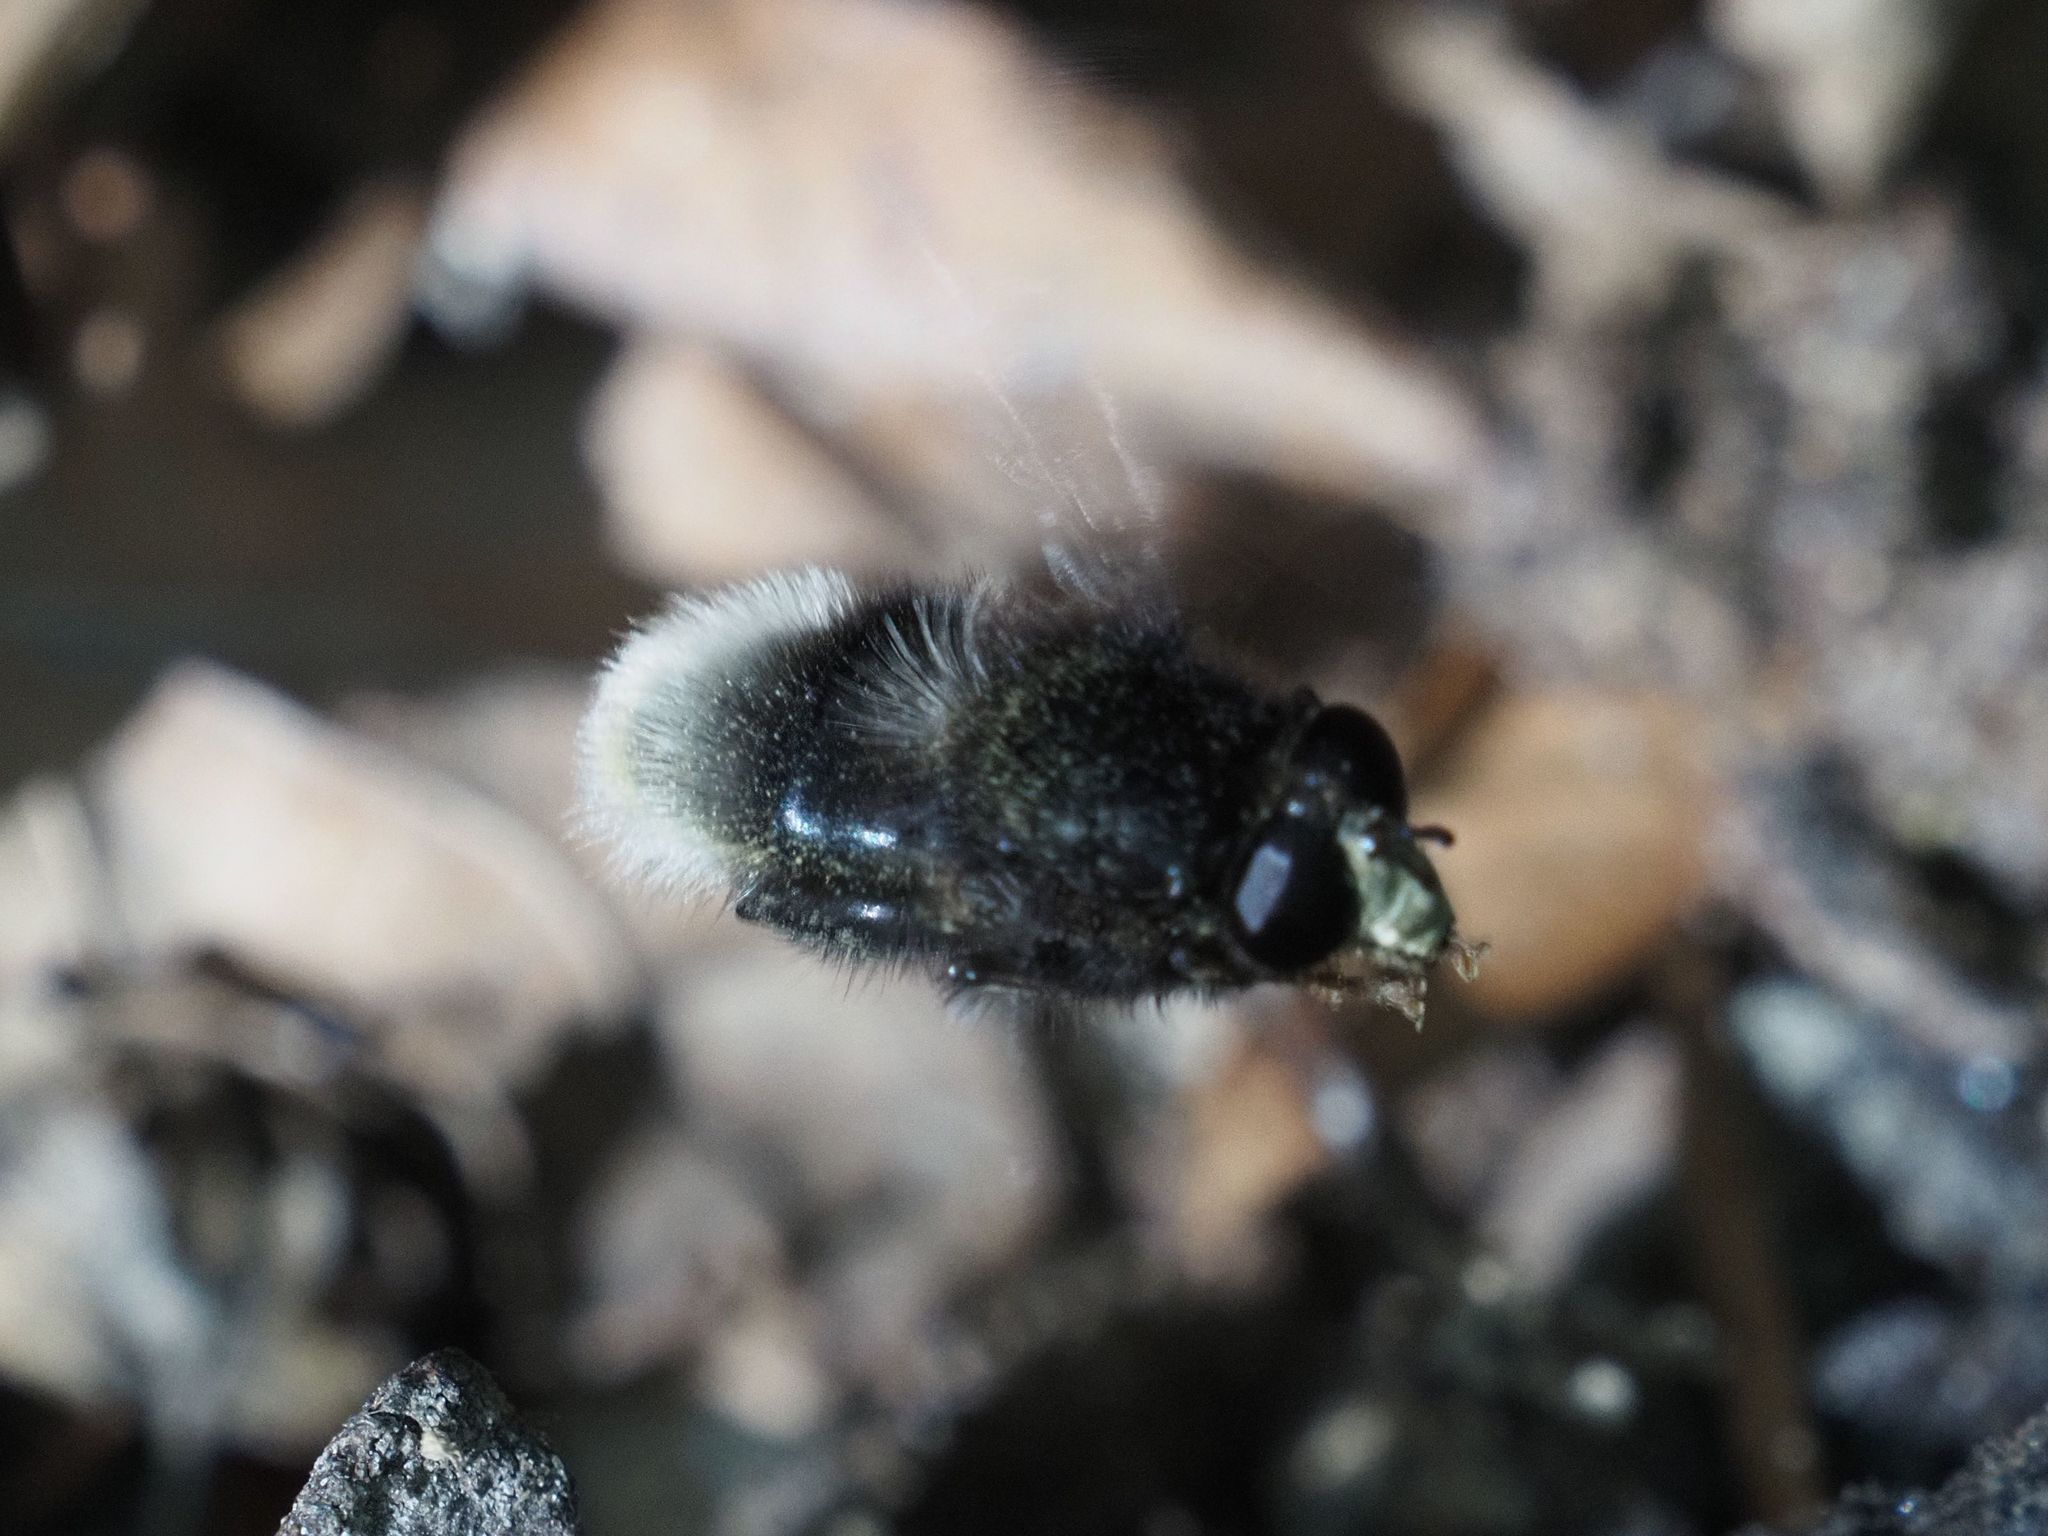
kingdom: Animalia
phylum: Arthropoda
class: Insecta
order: Diptera
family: Syrphidae
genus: Criorhina
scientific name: Criorhina ranunculi
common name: Large bear hoverfly
